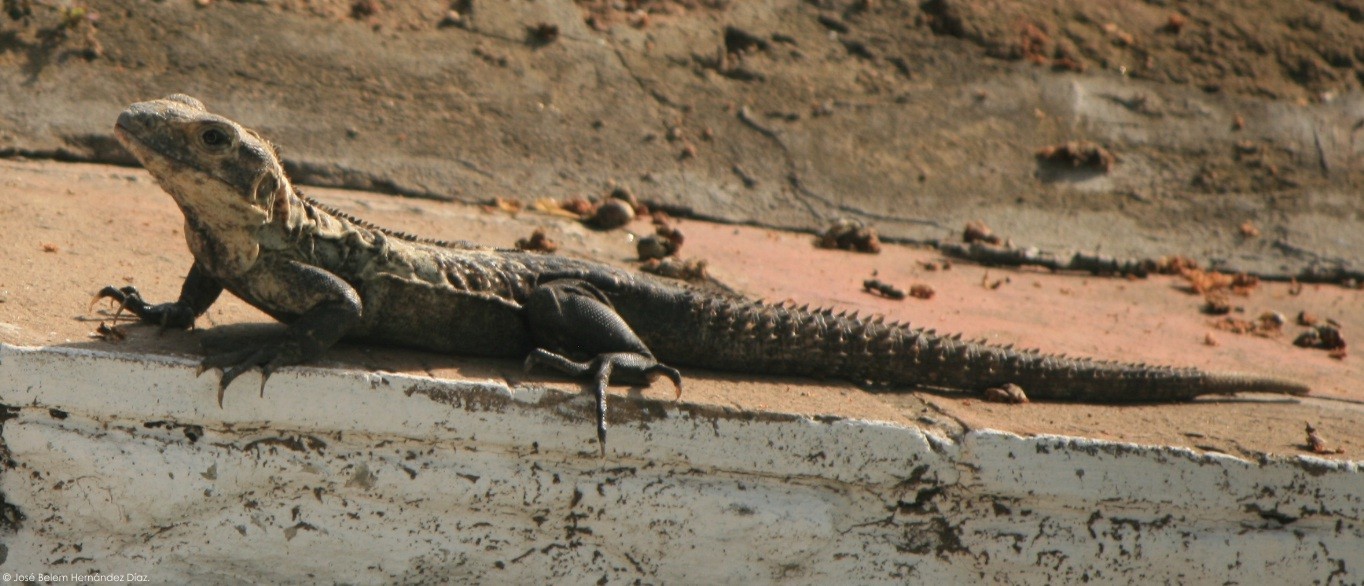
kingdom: Animalia
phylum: Chordata
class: Squamata
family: Iguanidae
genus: Ctenosaura
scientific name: Ctenosaura acanthura
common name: Northeastern spinytail iguana
